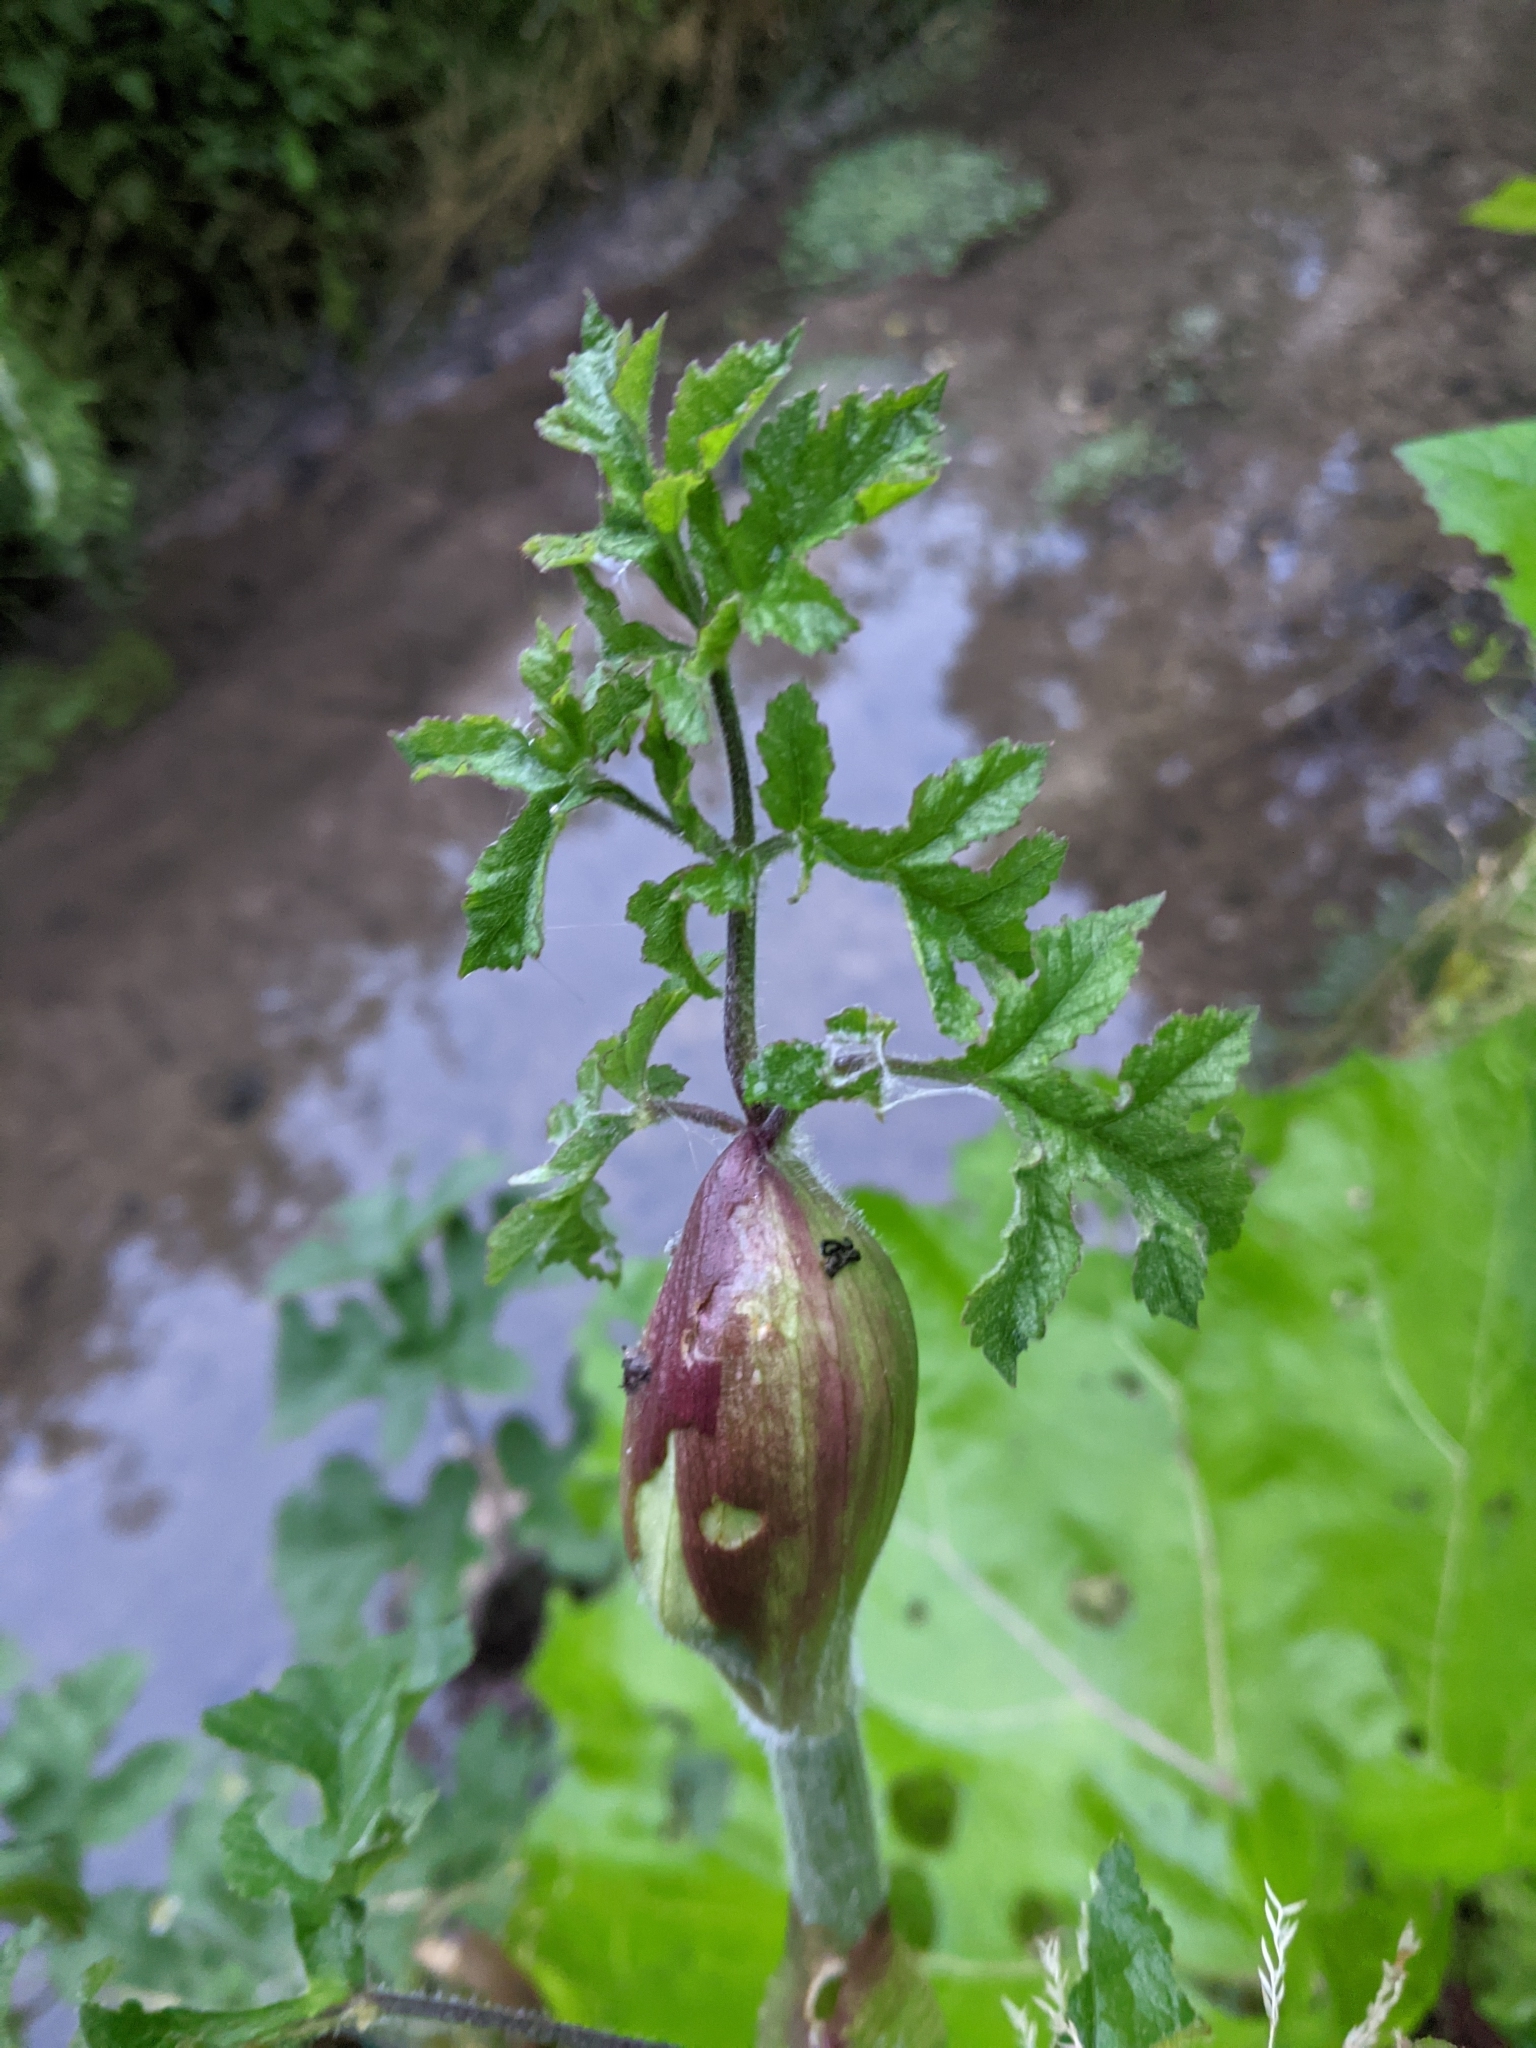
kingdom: Plantae
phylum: Tracheophyta
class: Magnoliopsida
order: Apiales
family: Apiaceae
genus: Heracleum
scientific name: Heracleum sphondylium
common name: Hogweed
